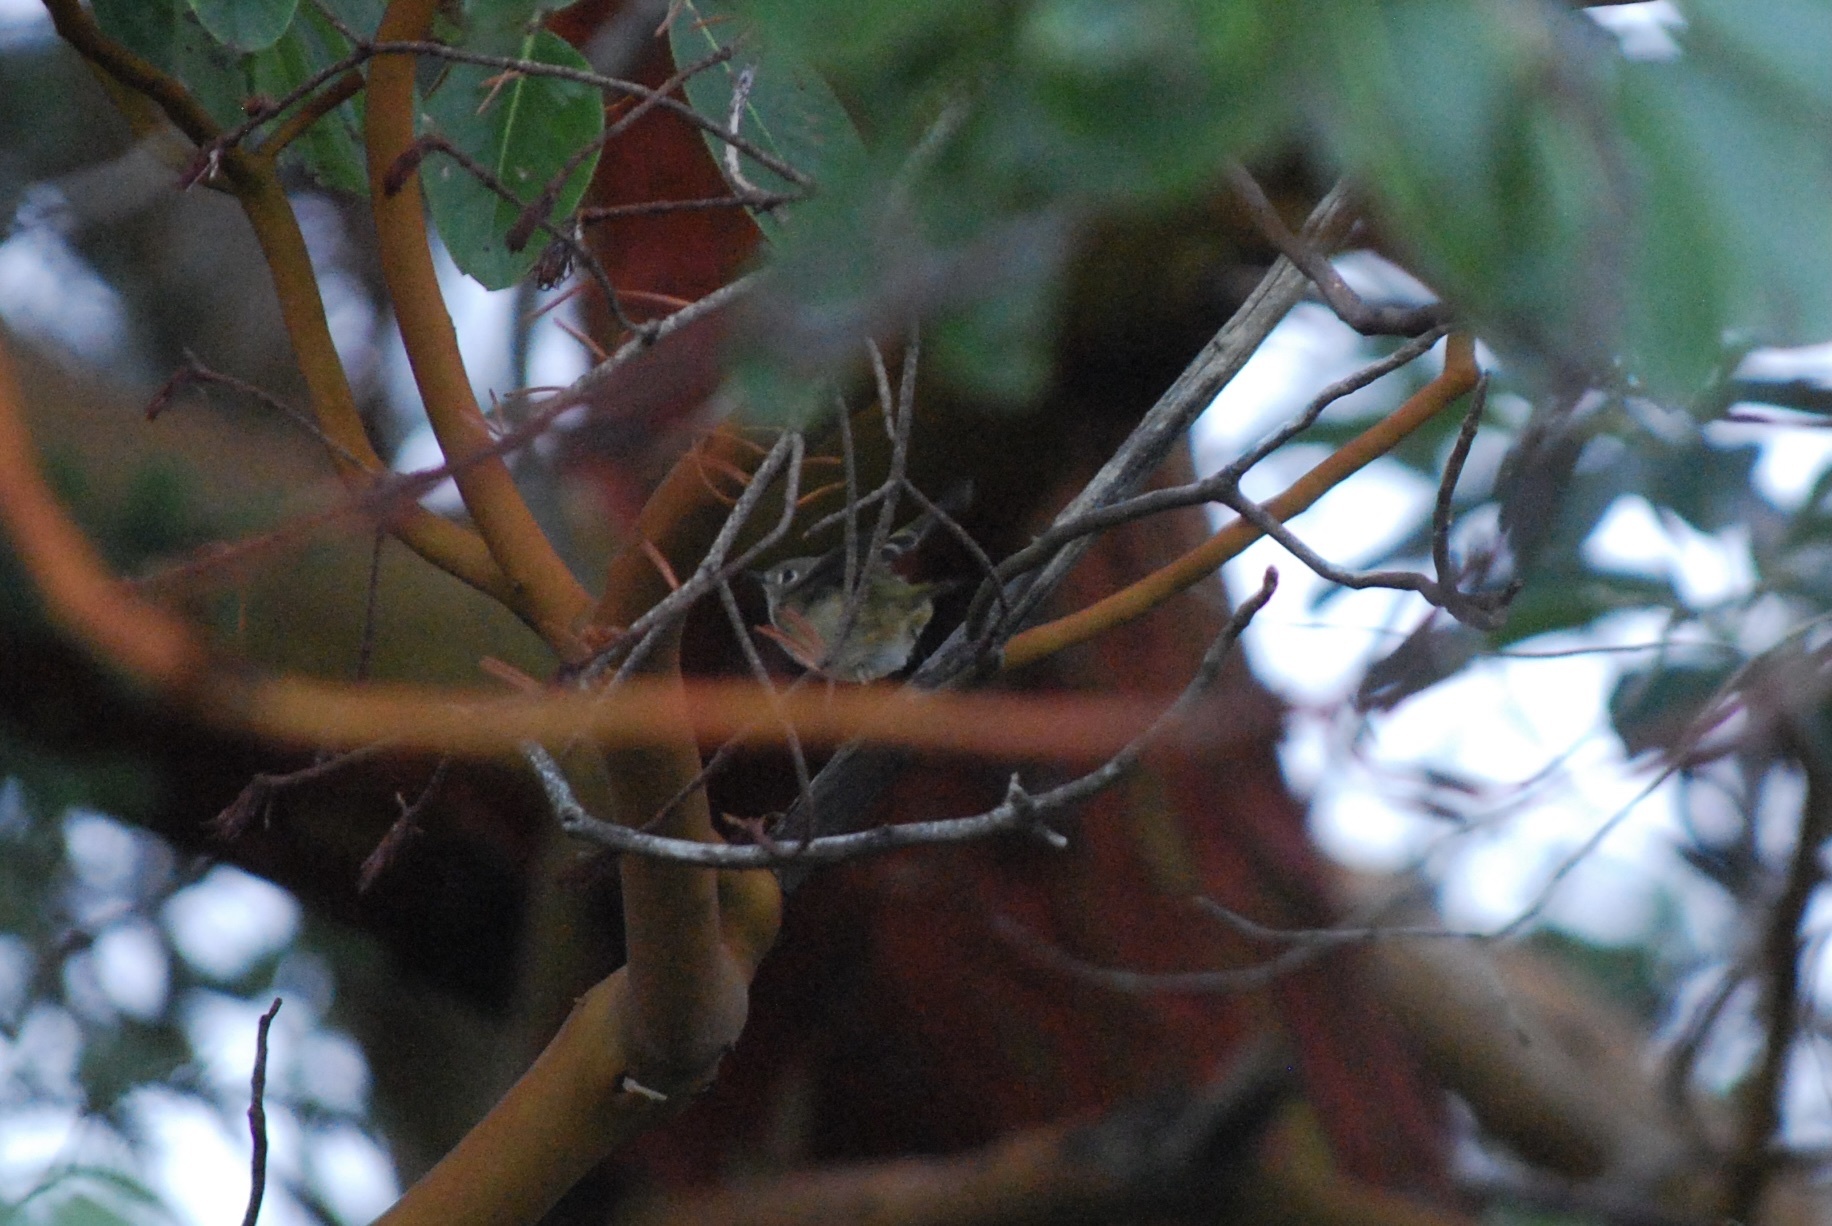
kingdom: Animalia
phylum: Chordata
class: Aves
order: Passeriformes
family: Regulidae
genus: Regulus
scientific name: Regulus calendula
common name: Ruby-crowned kinglet
